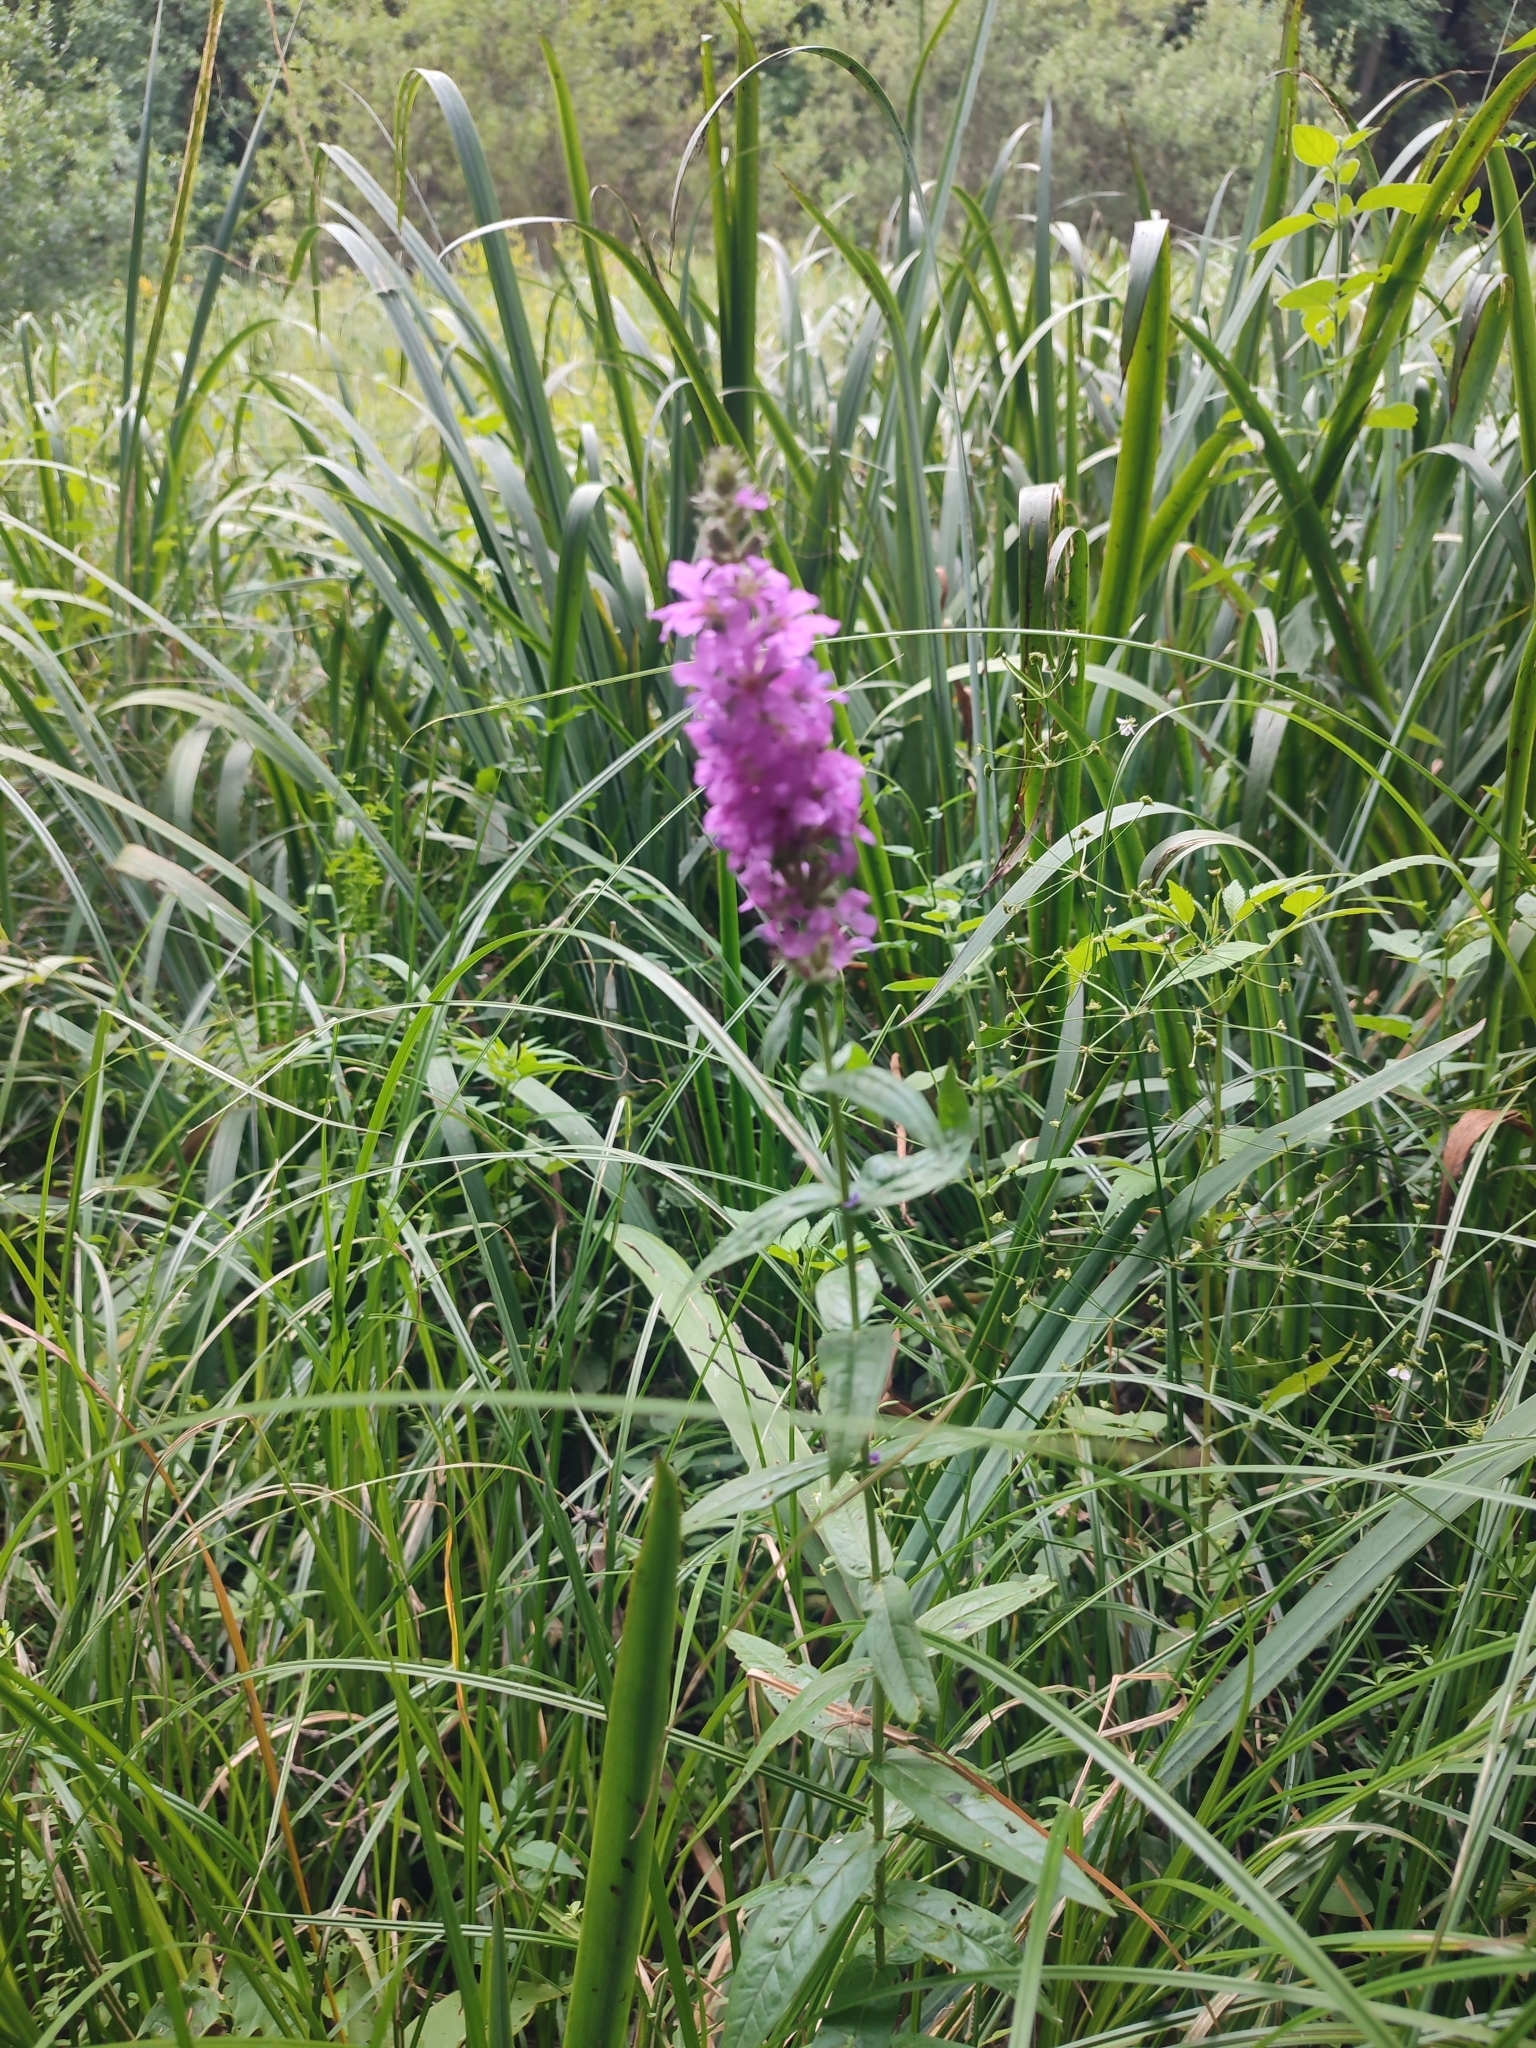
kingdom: Plantae
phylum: Tracheophyta
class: Magnoliopsida
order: Myrtales
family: Lythraceae
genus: Lythrum
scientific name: Lythrum salicaria
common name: Purple loosestrife
